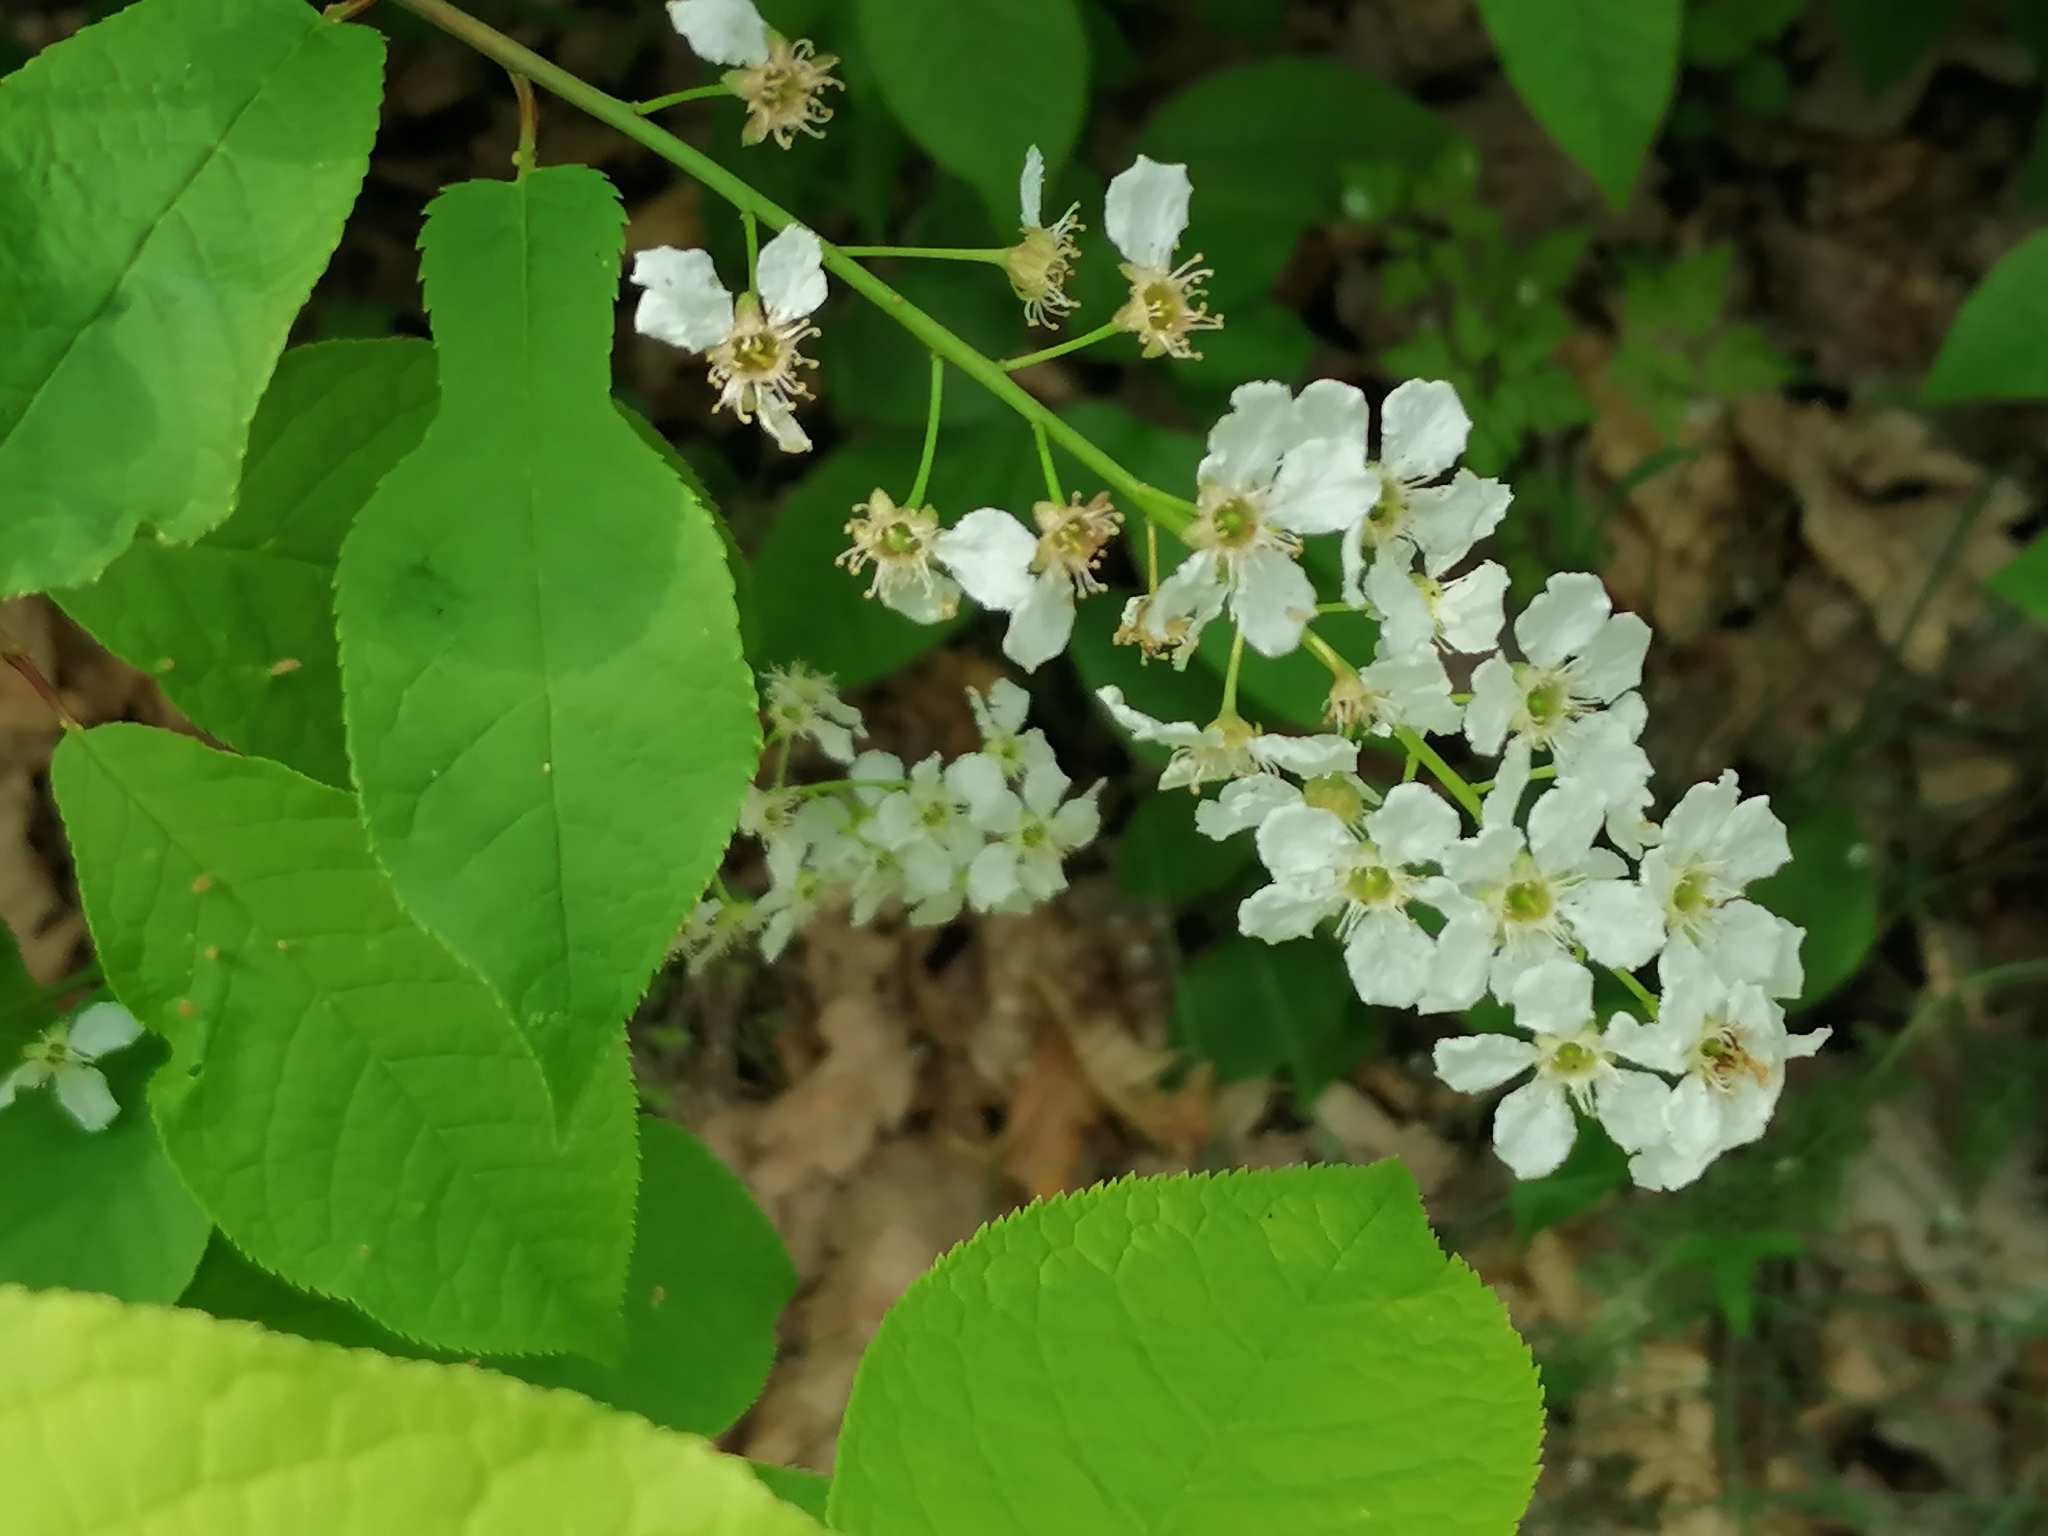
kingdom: Plantae
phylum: Tracheophyta
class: Magnoliopsida
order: Rosales
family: Rosaceae
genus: Prunus
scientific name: Prunus padus
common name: Bird cherry
